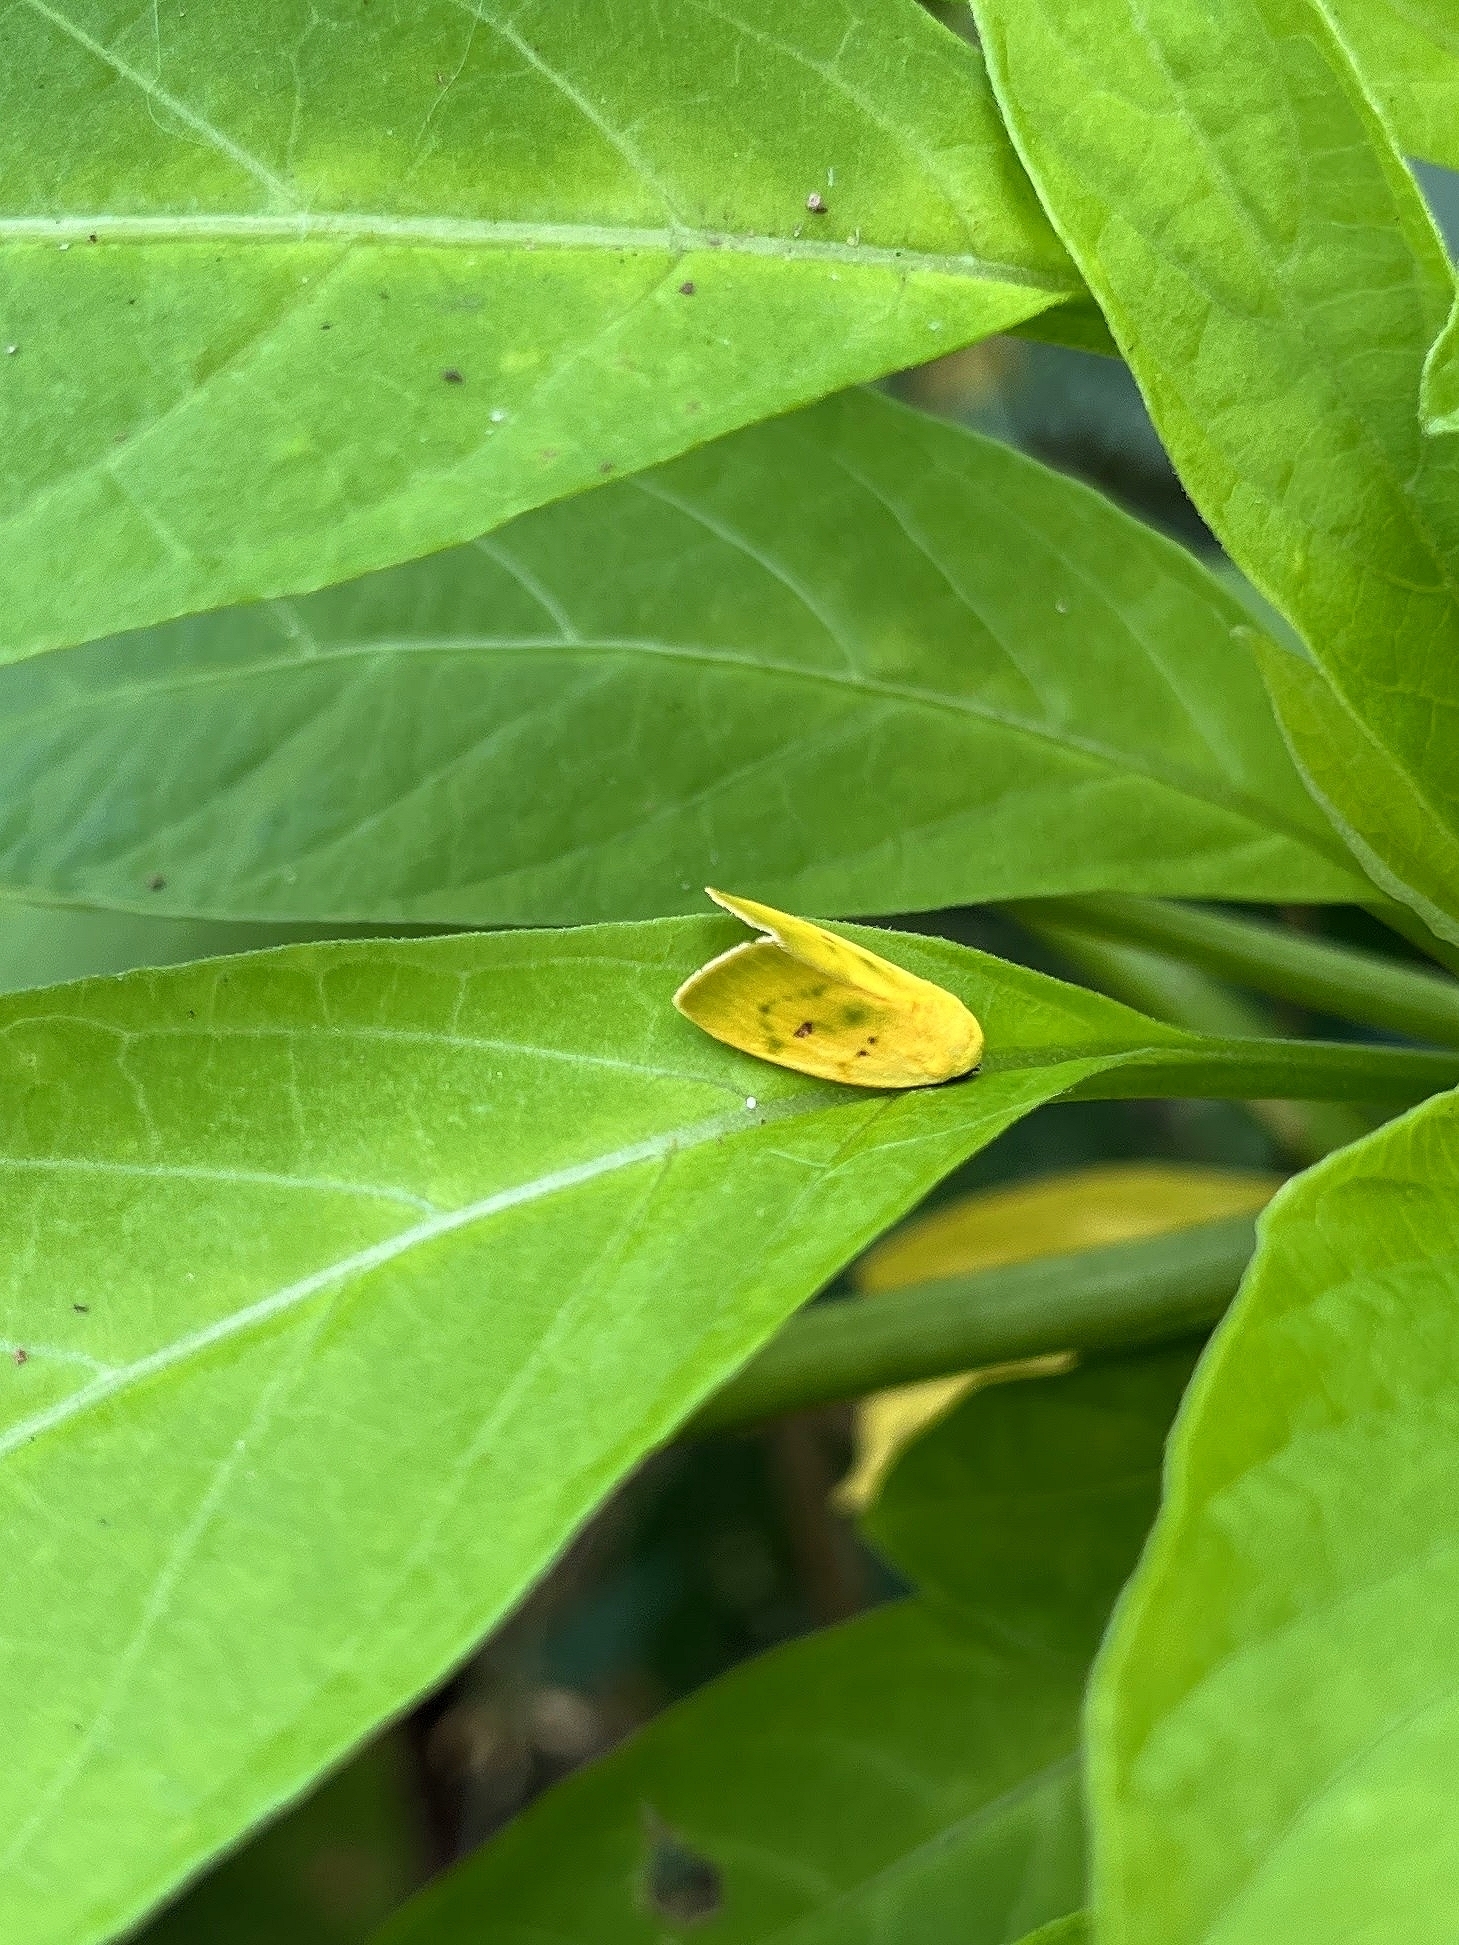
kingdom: Animalia
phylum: Arthropoda
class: Insecta
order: Lepidoptera
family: Nolidae
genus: Earias
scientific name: Earias flavida
